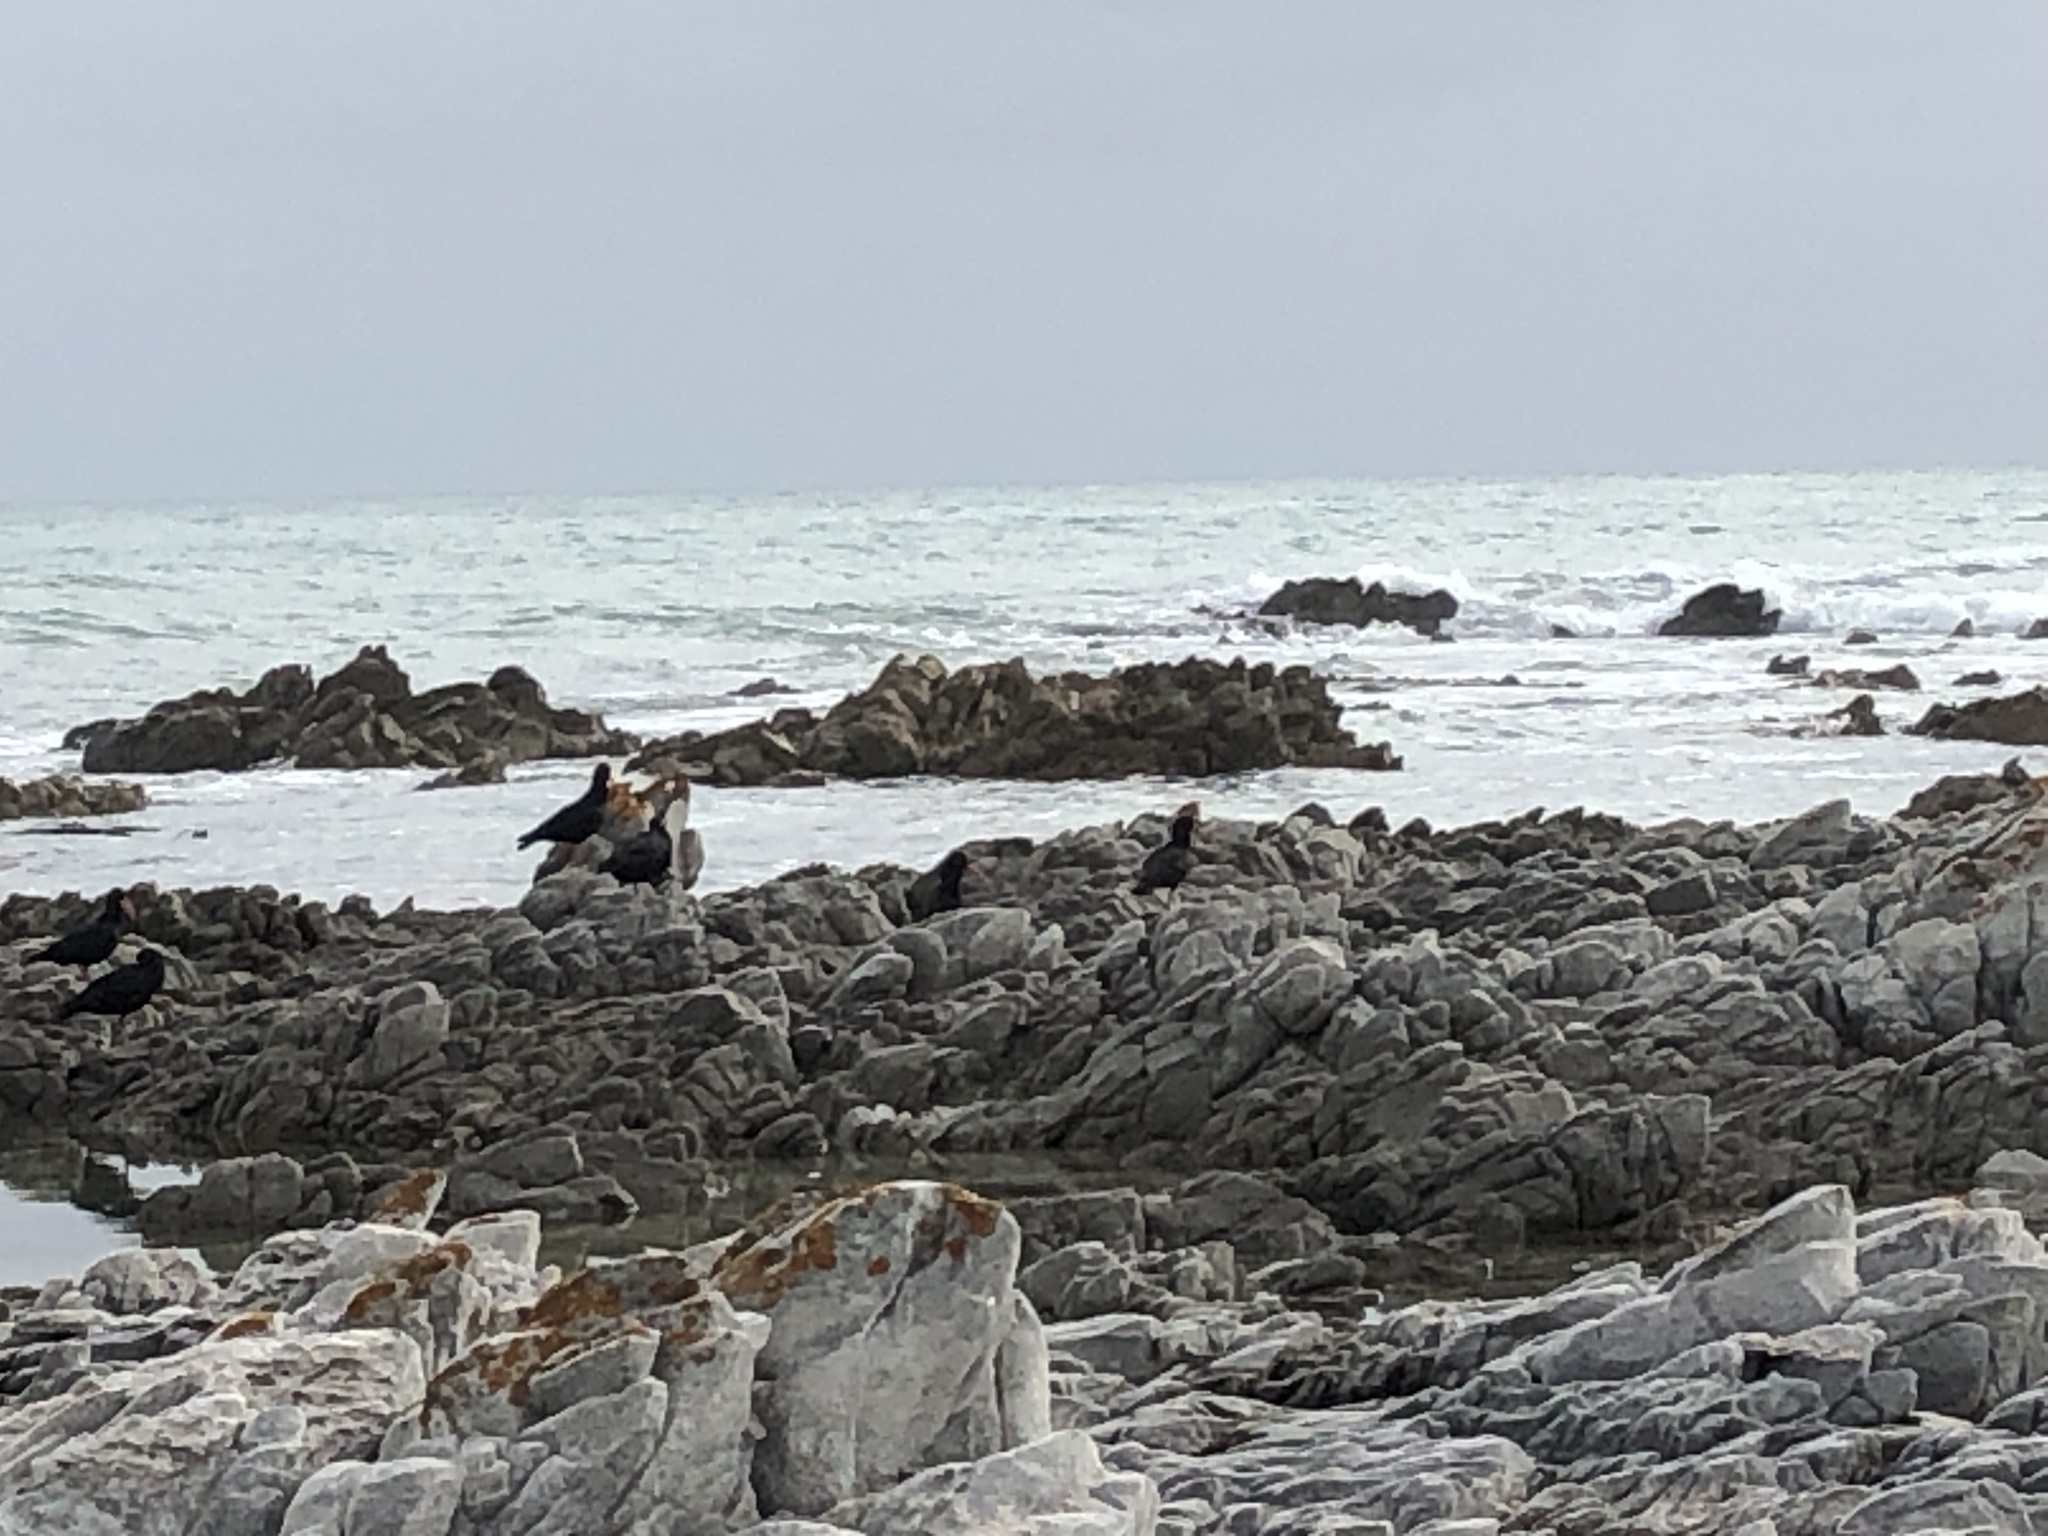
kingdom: Animalia
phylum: Chordata
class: Aves
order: Charadriiformes
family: Haematopodidae
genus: Haematopus
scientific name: Haematopus moquini
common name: African oystercatcher
